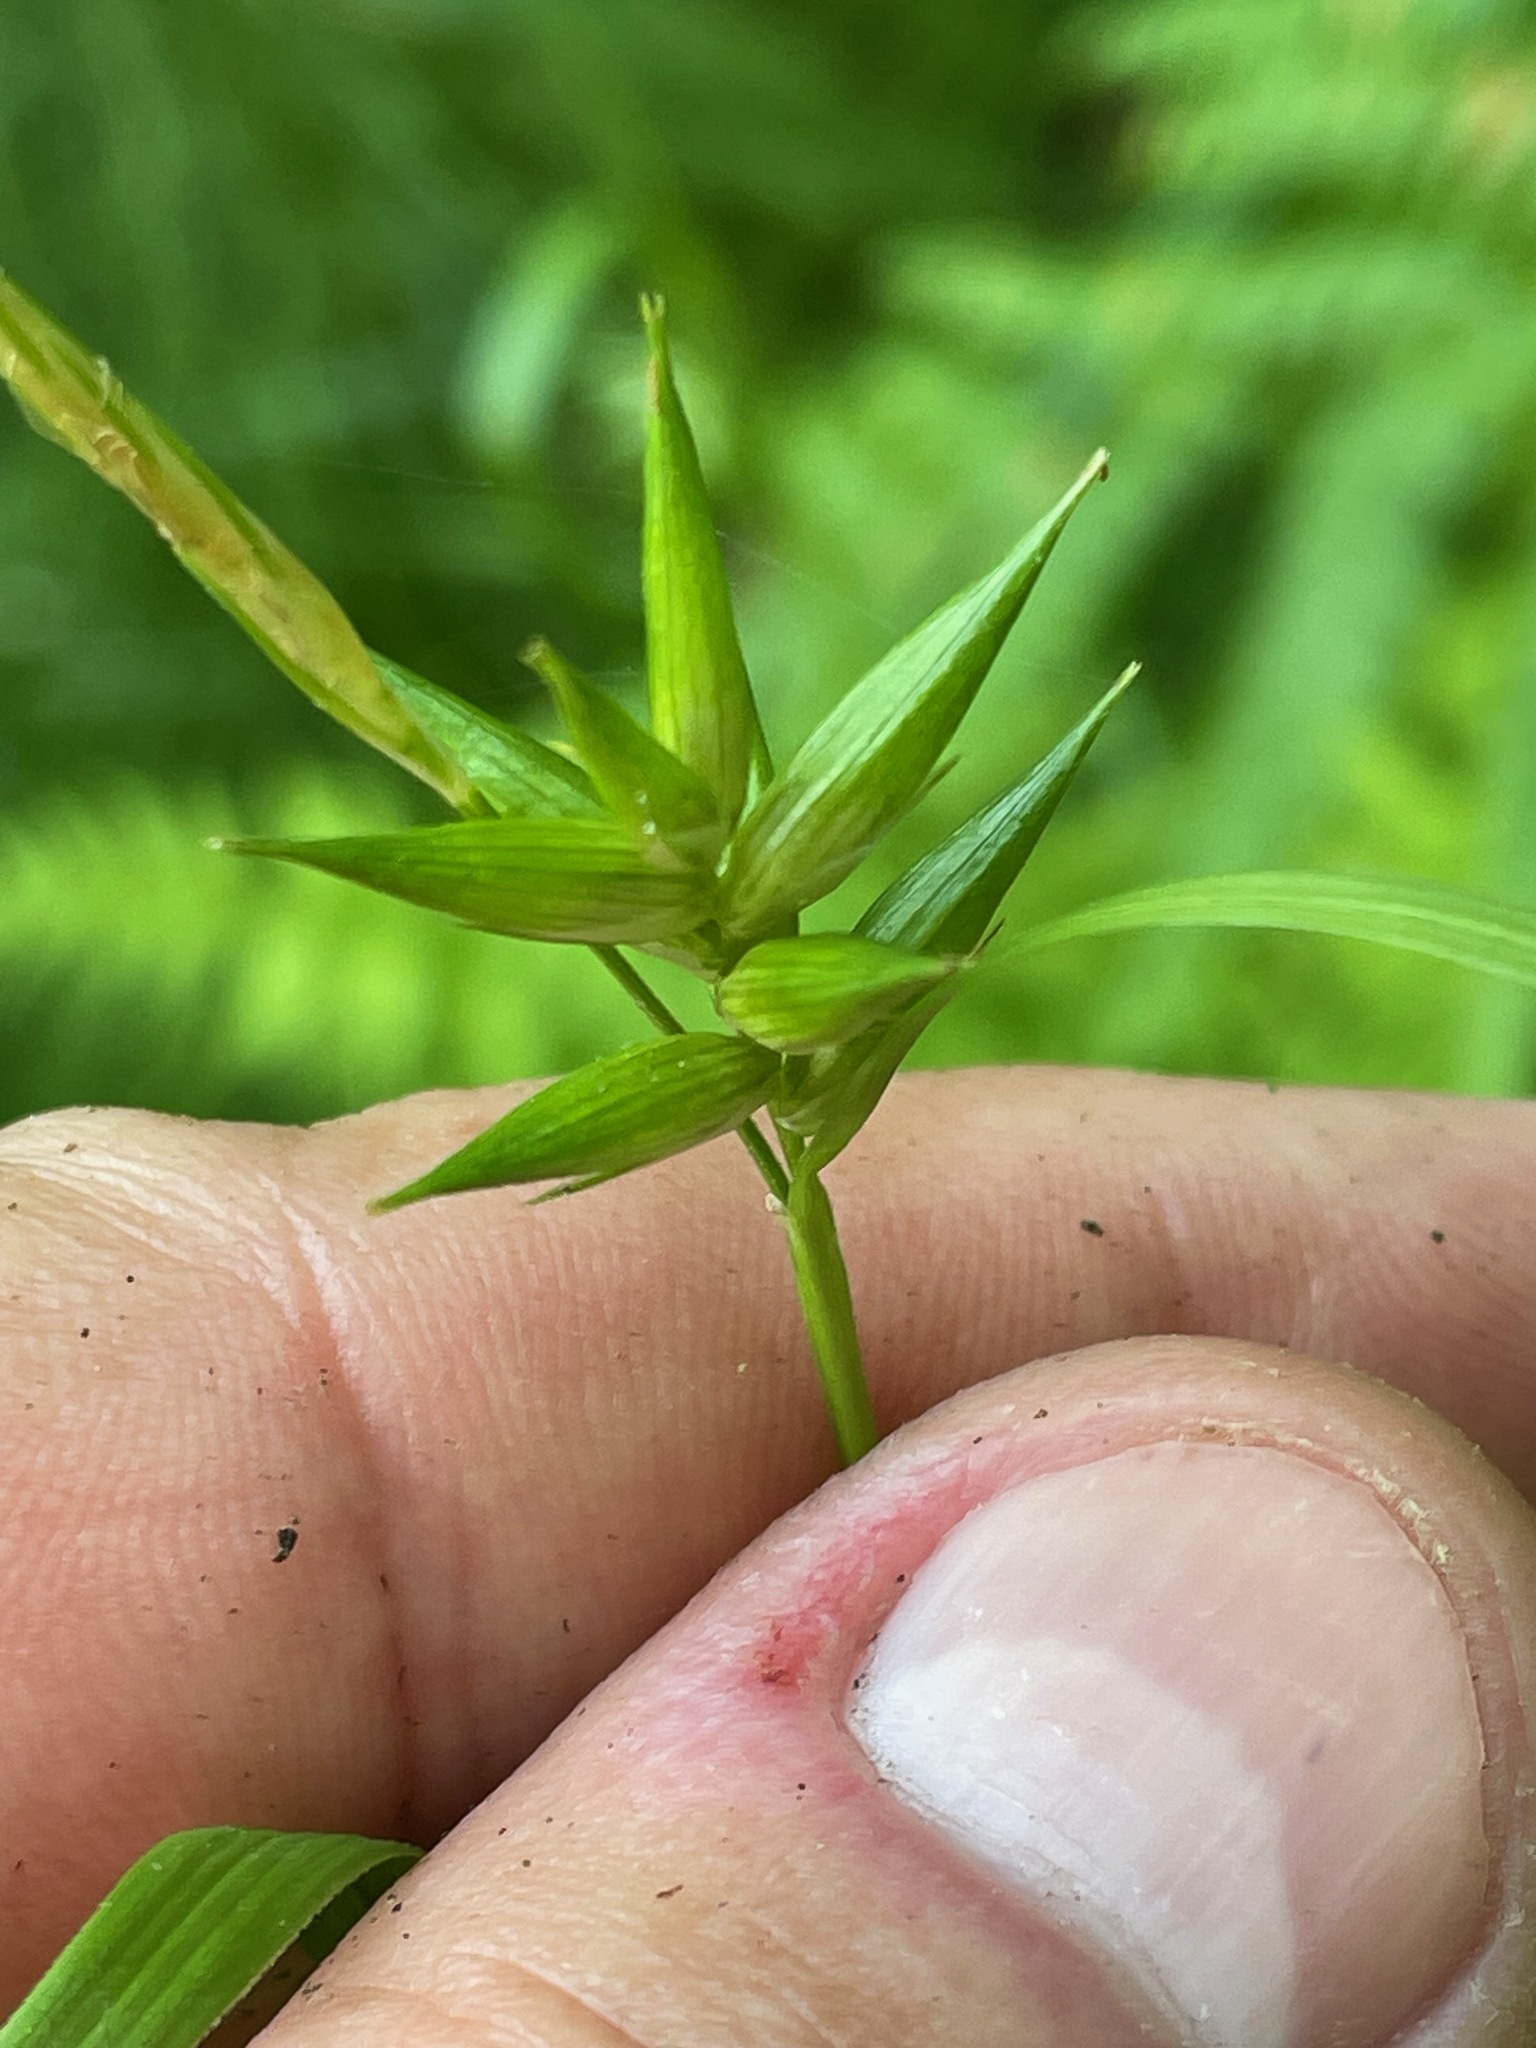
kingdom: Plantae
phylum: Tracheophyta
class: Liliopsida
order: Poales
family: Cyperaceae
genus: Carex
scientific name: Carex folliculata
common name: Northern long sedge
